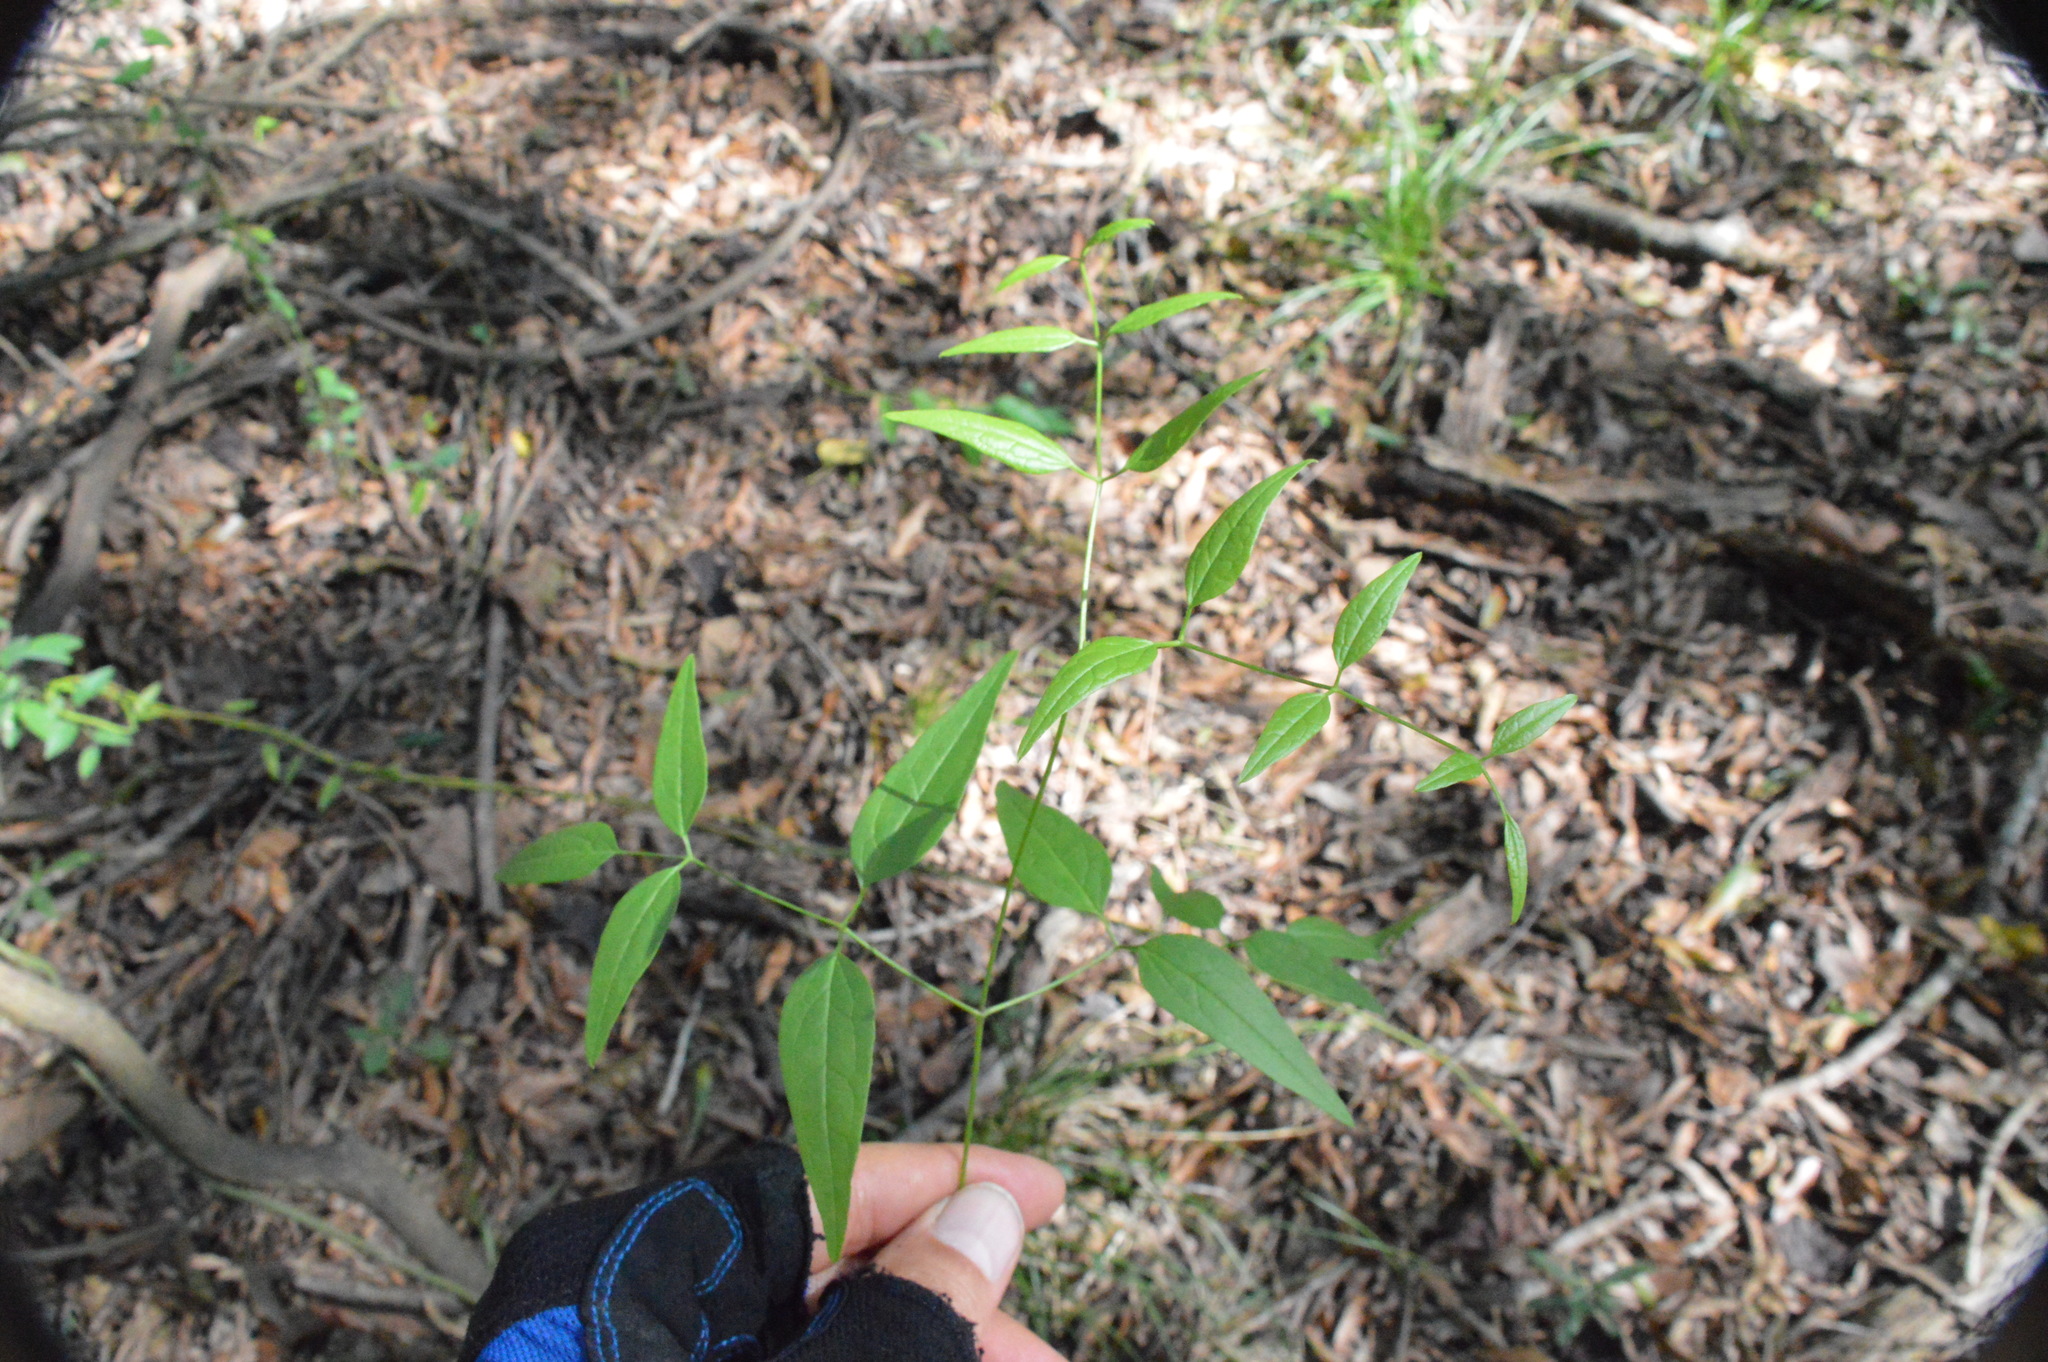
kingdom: Plantae
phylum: Tracheophyta
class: Magnoliopsida
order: Ranunculales
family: Ranunculaceae
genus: Clematis
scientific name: Clematis crispa
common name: Curly clematis
